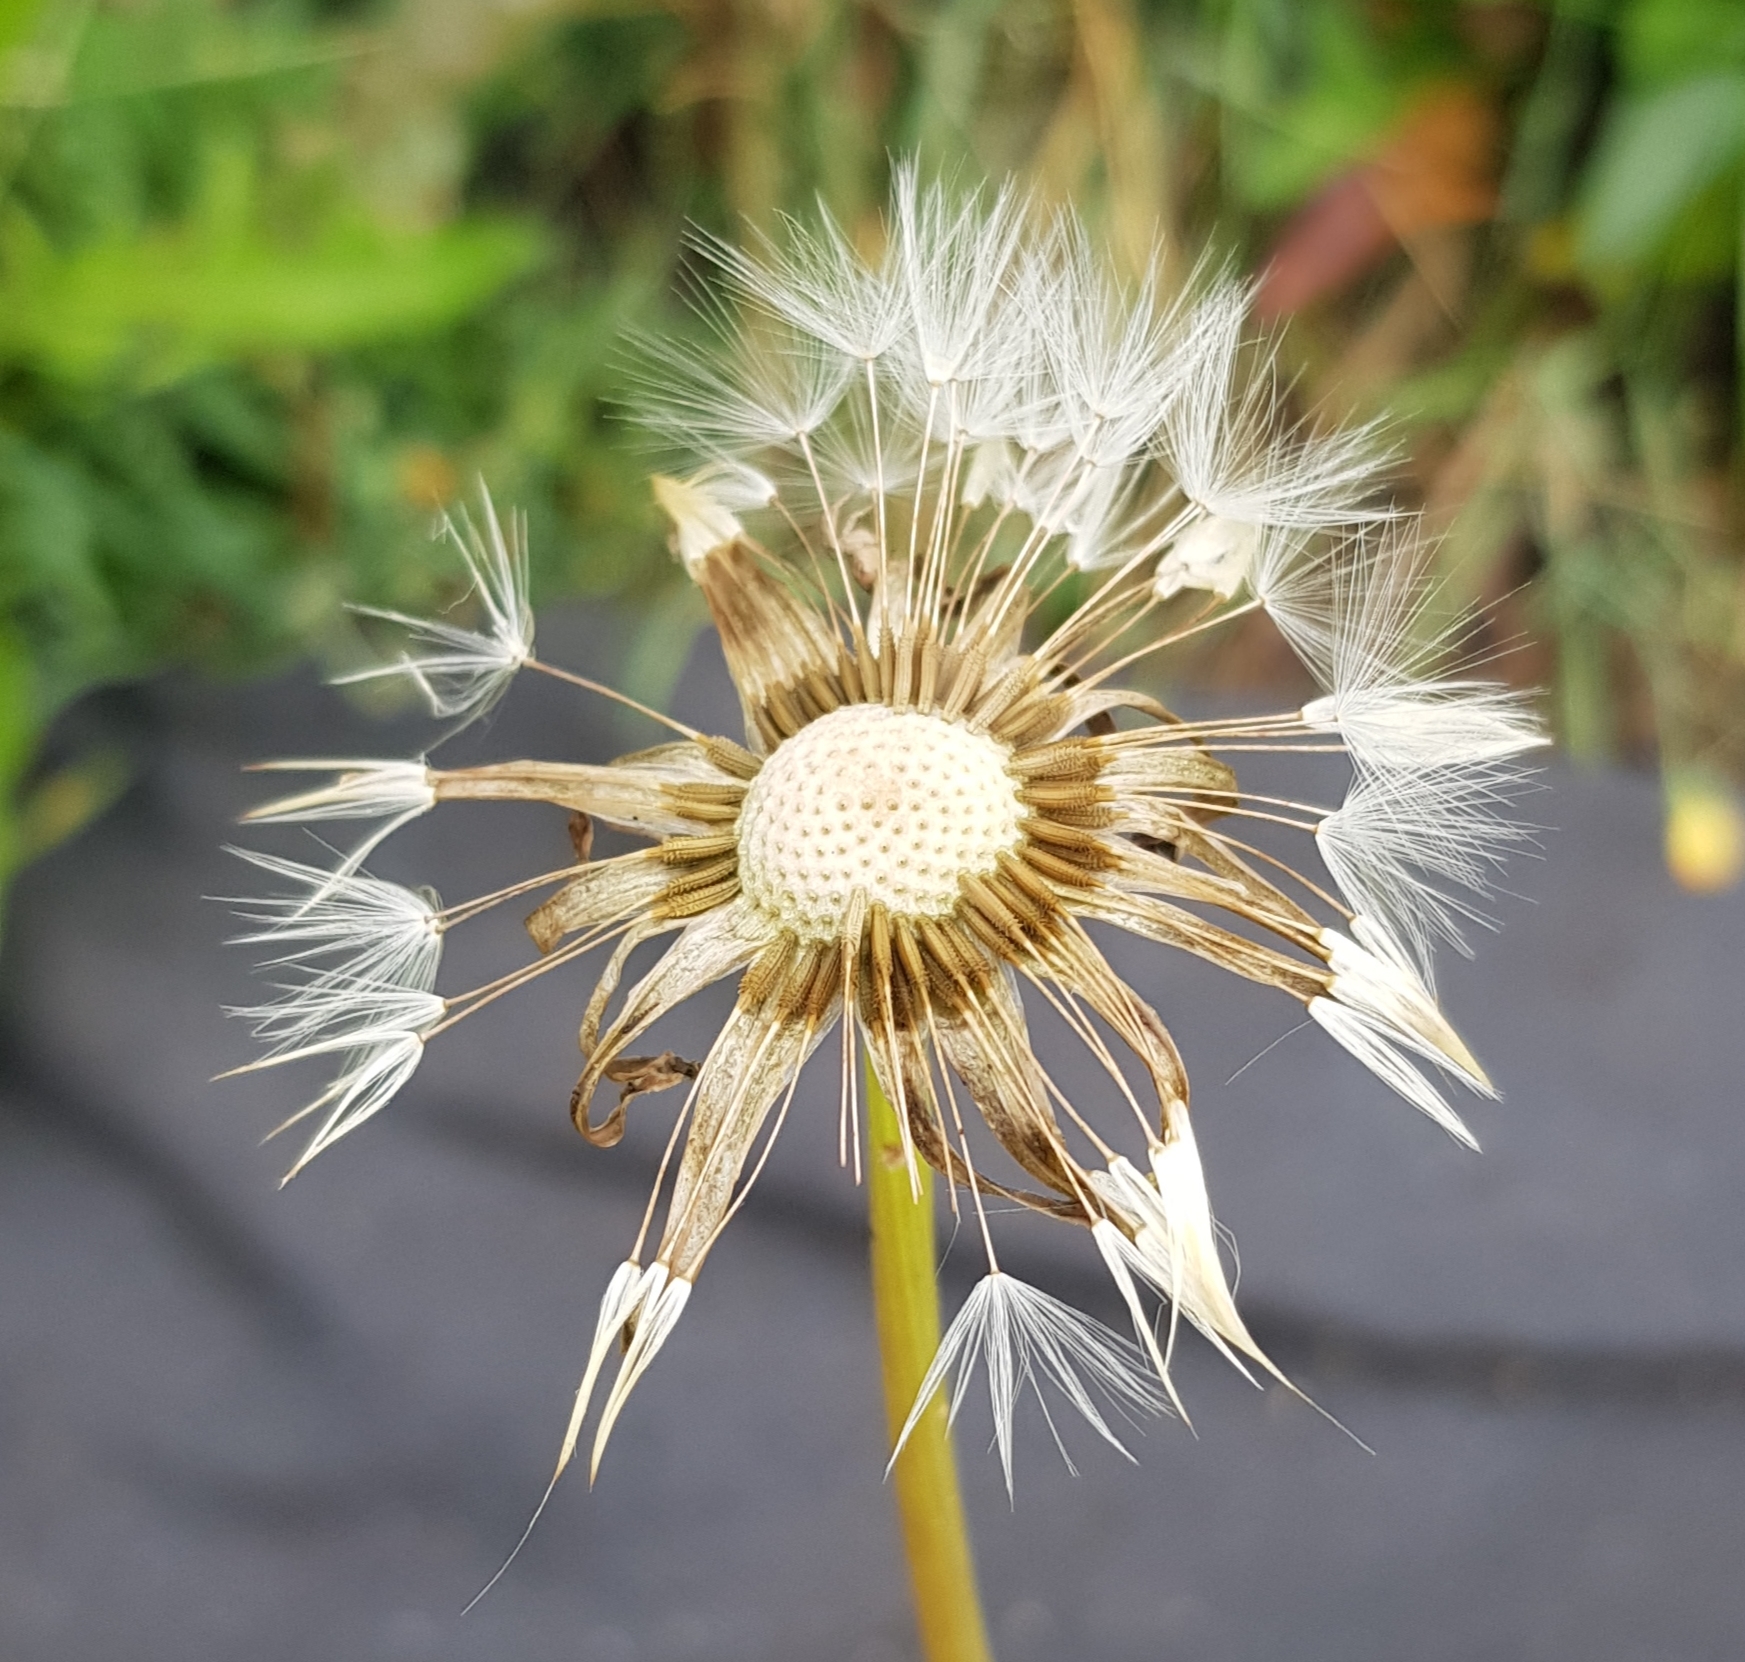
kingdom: Plantae
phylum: Tracheophyta
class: Magnoliopsida
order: Asterales
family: Asteraceae
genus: Taraxacum
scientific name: Taraxacum mongolicum
